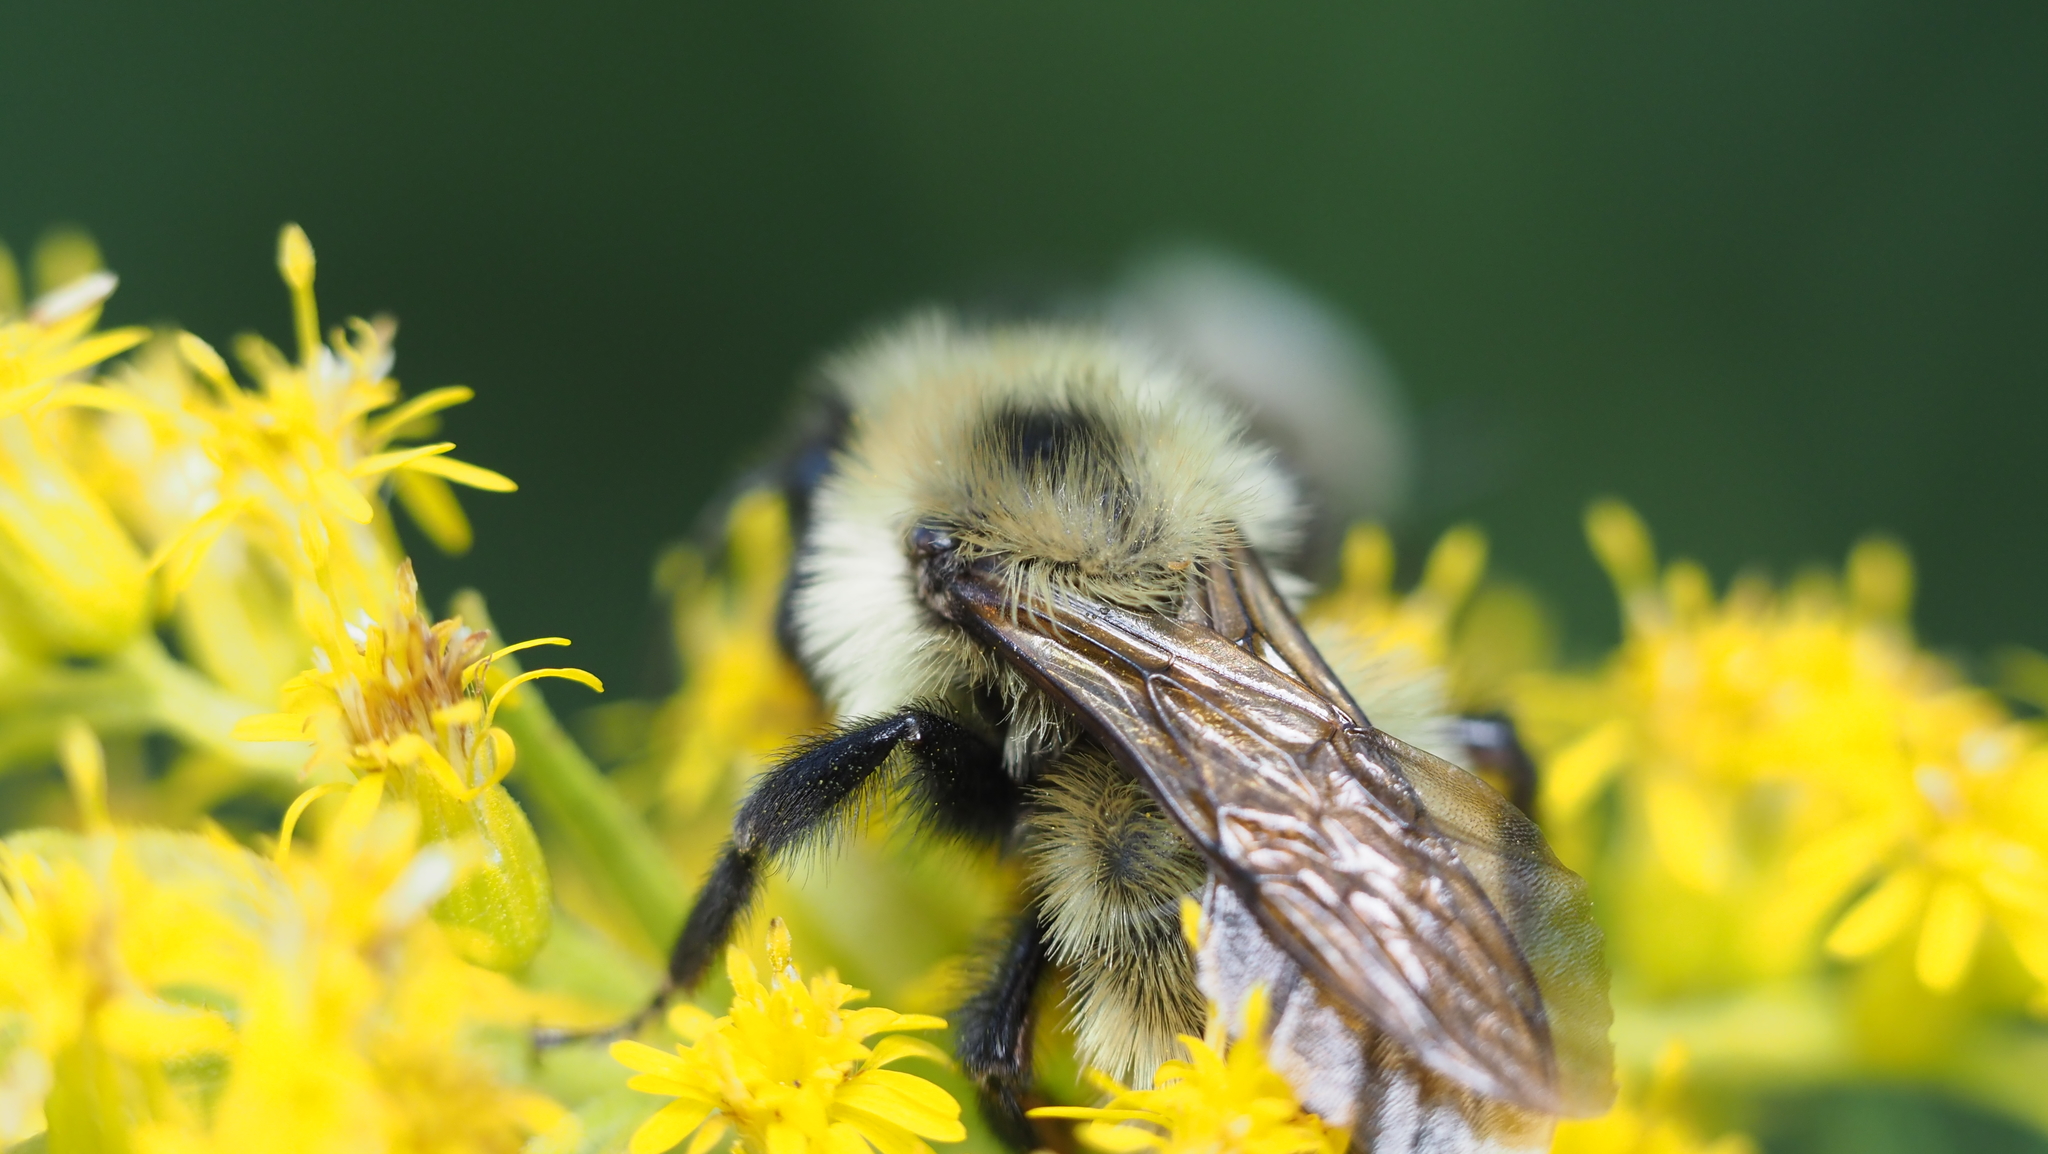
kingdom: Animalia
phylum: Arthropoda
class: Insecta
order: Hymenoptera
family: Apidae
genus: Bombus
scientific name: Bombus citrinus
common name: Lemon cuckoo bumble bee
